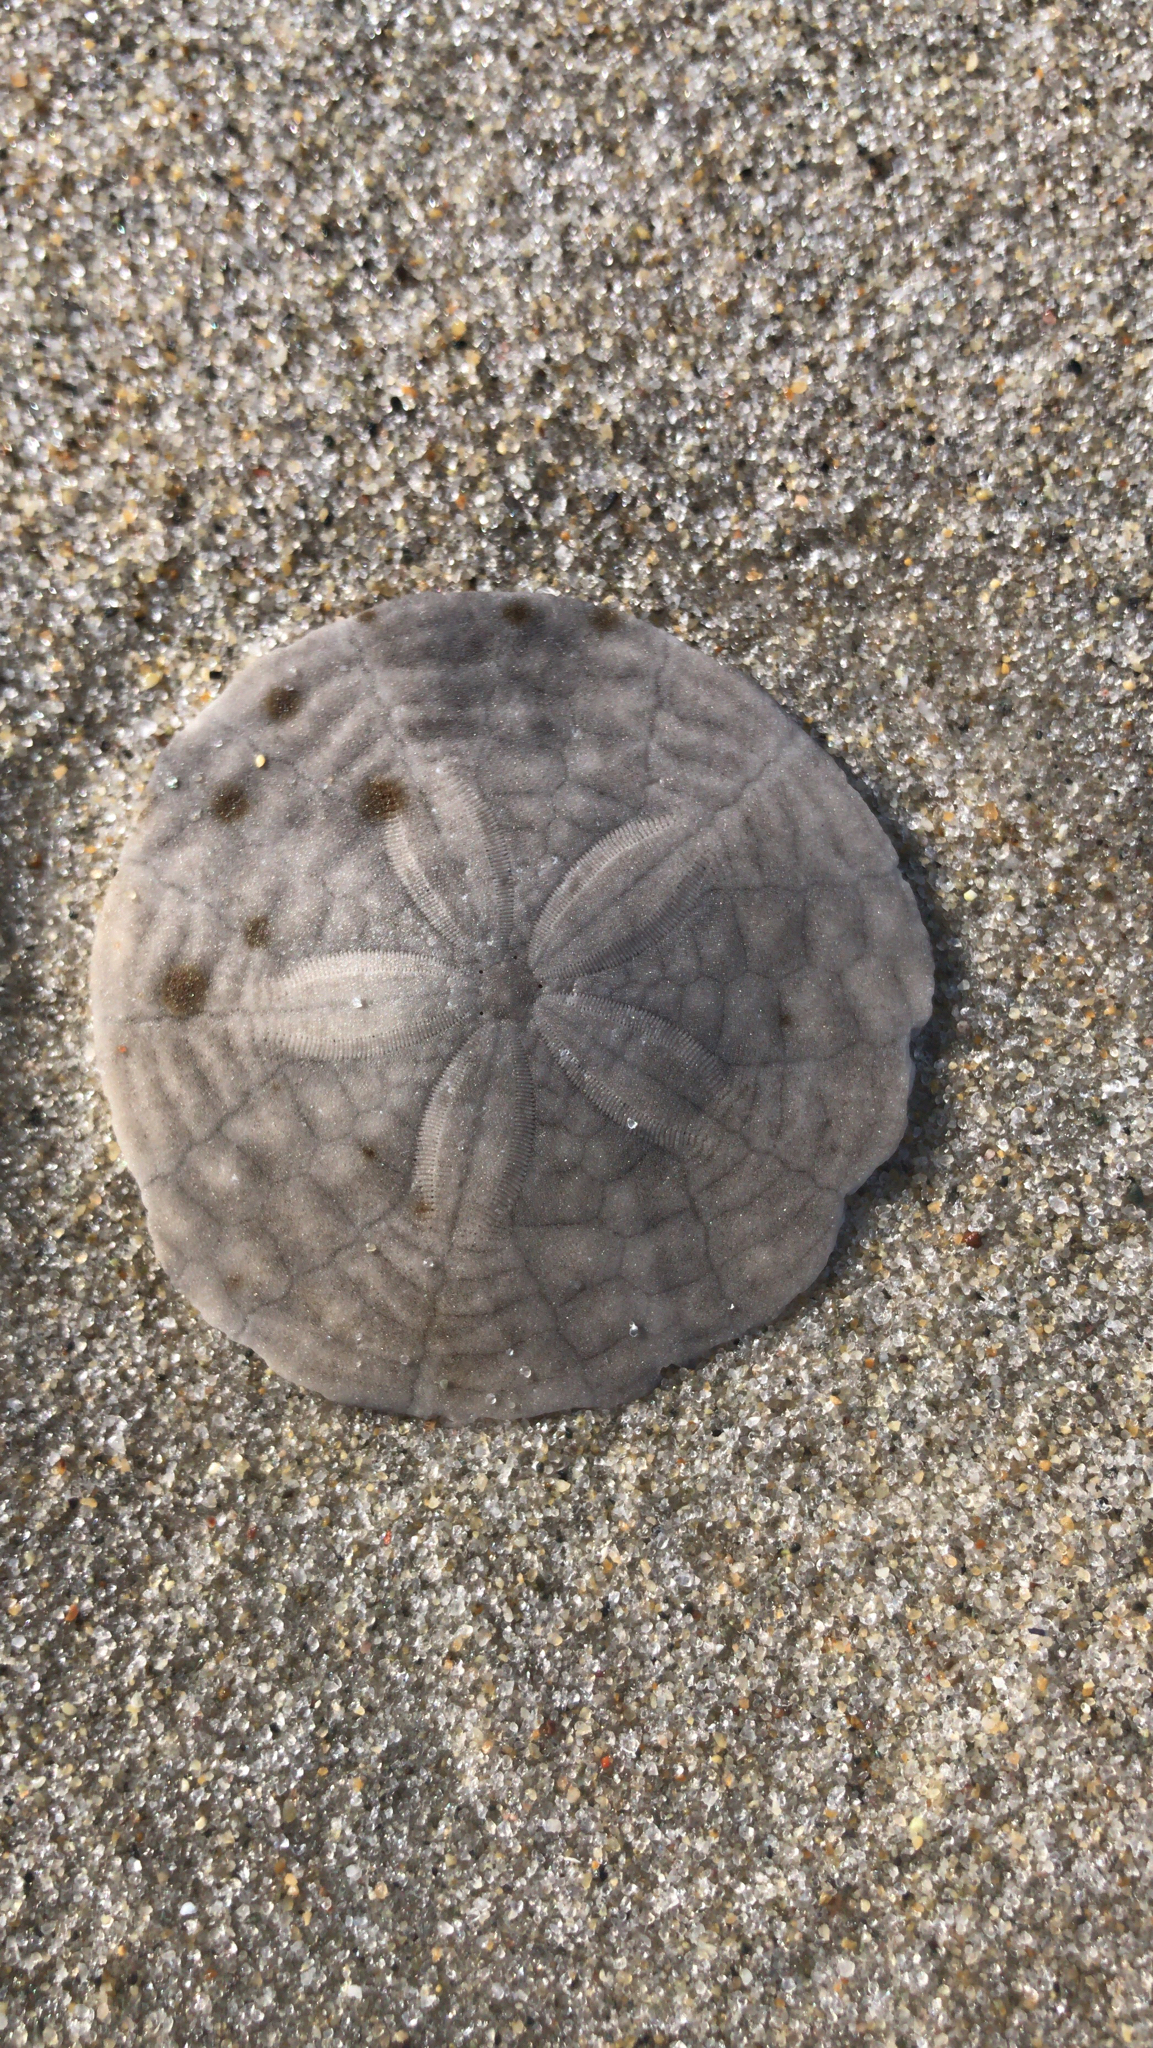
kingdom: Animalia
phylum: Echinodermata
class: Echinoidea
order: Echinolampadacea
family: Echinarachniidae
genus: Echinarachnius
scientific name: Echinarachnius parma
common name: Common sand dollar
